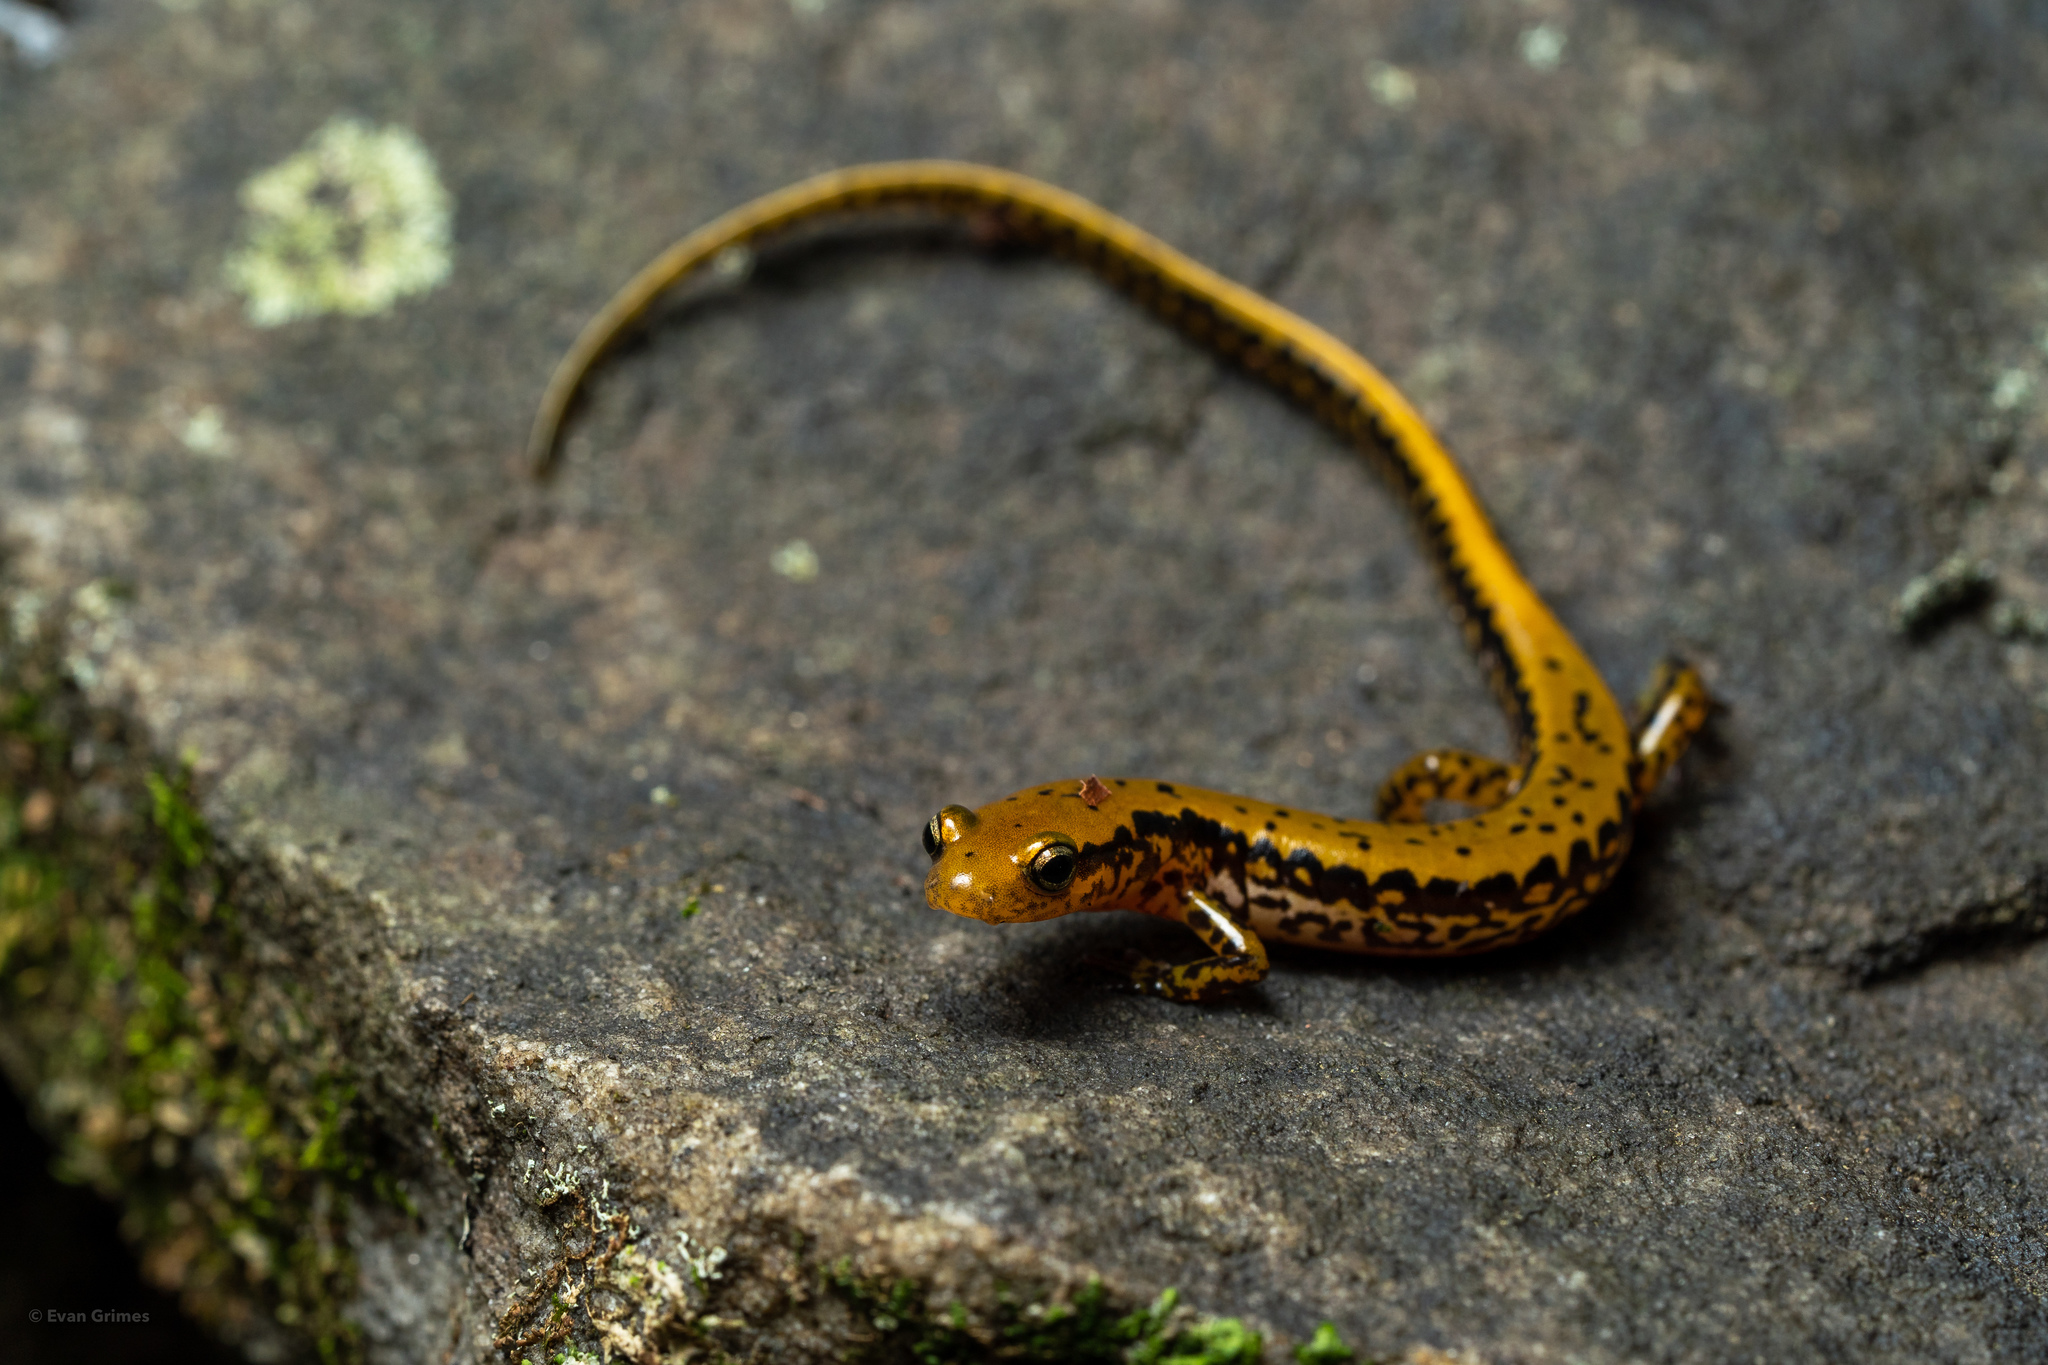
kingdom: Animalia
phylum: Chordata
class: Amphibia
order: Caudata
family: Plethodontidae
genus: Eurycea
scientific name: Eurycea longicauda
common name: Long-tailed salamander
